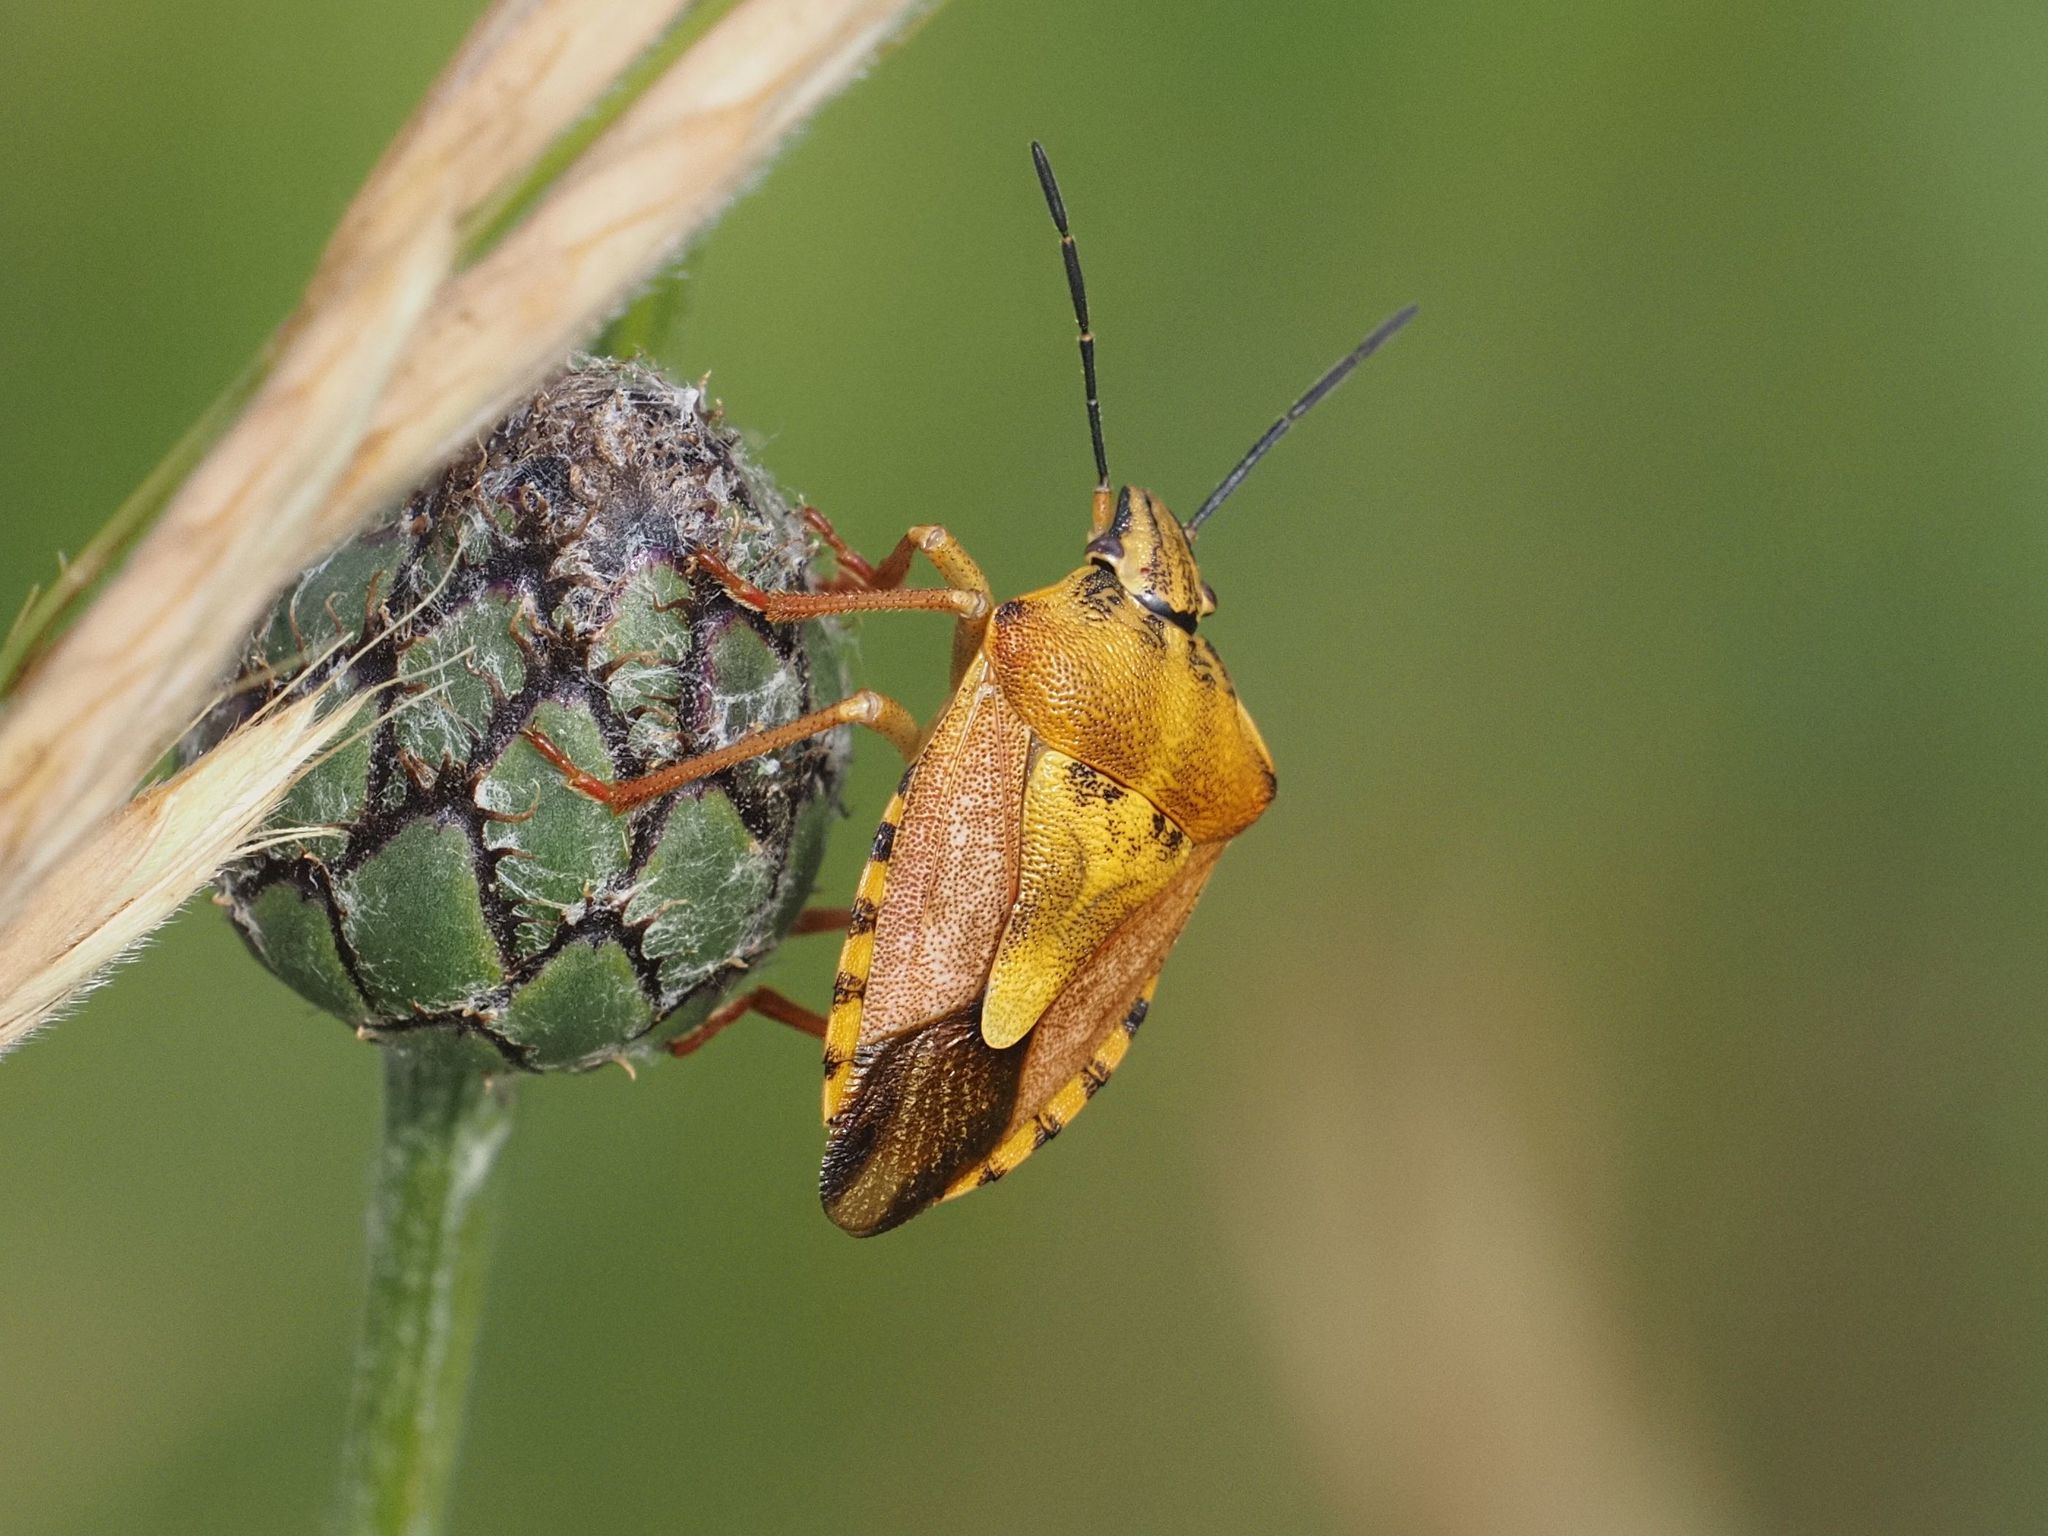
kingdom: Animalia
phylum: Arthropoda
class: Insecta
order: Hemiptera
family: Pentatomidae
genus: Carpocoris
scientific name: Carpocoris purpureipennis
